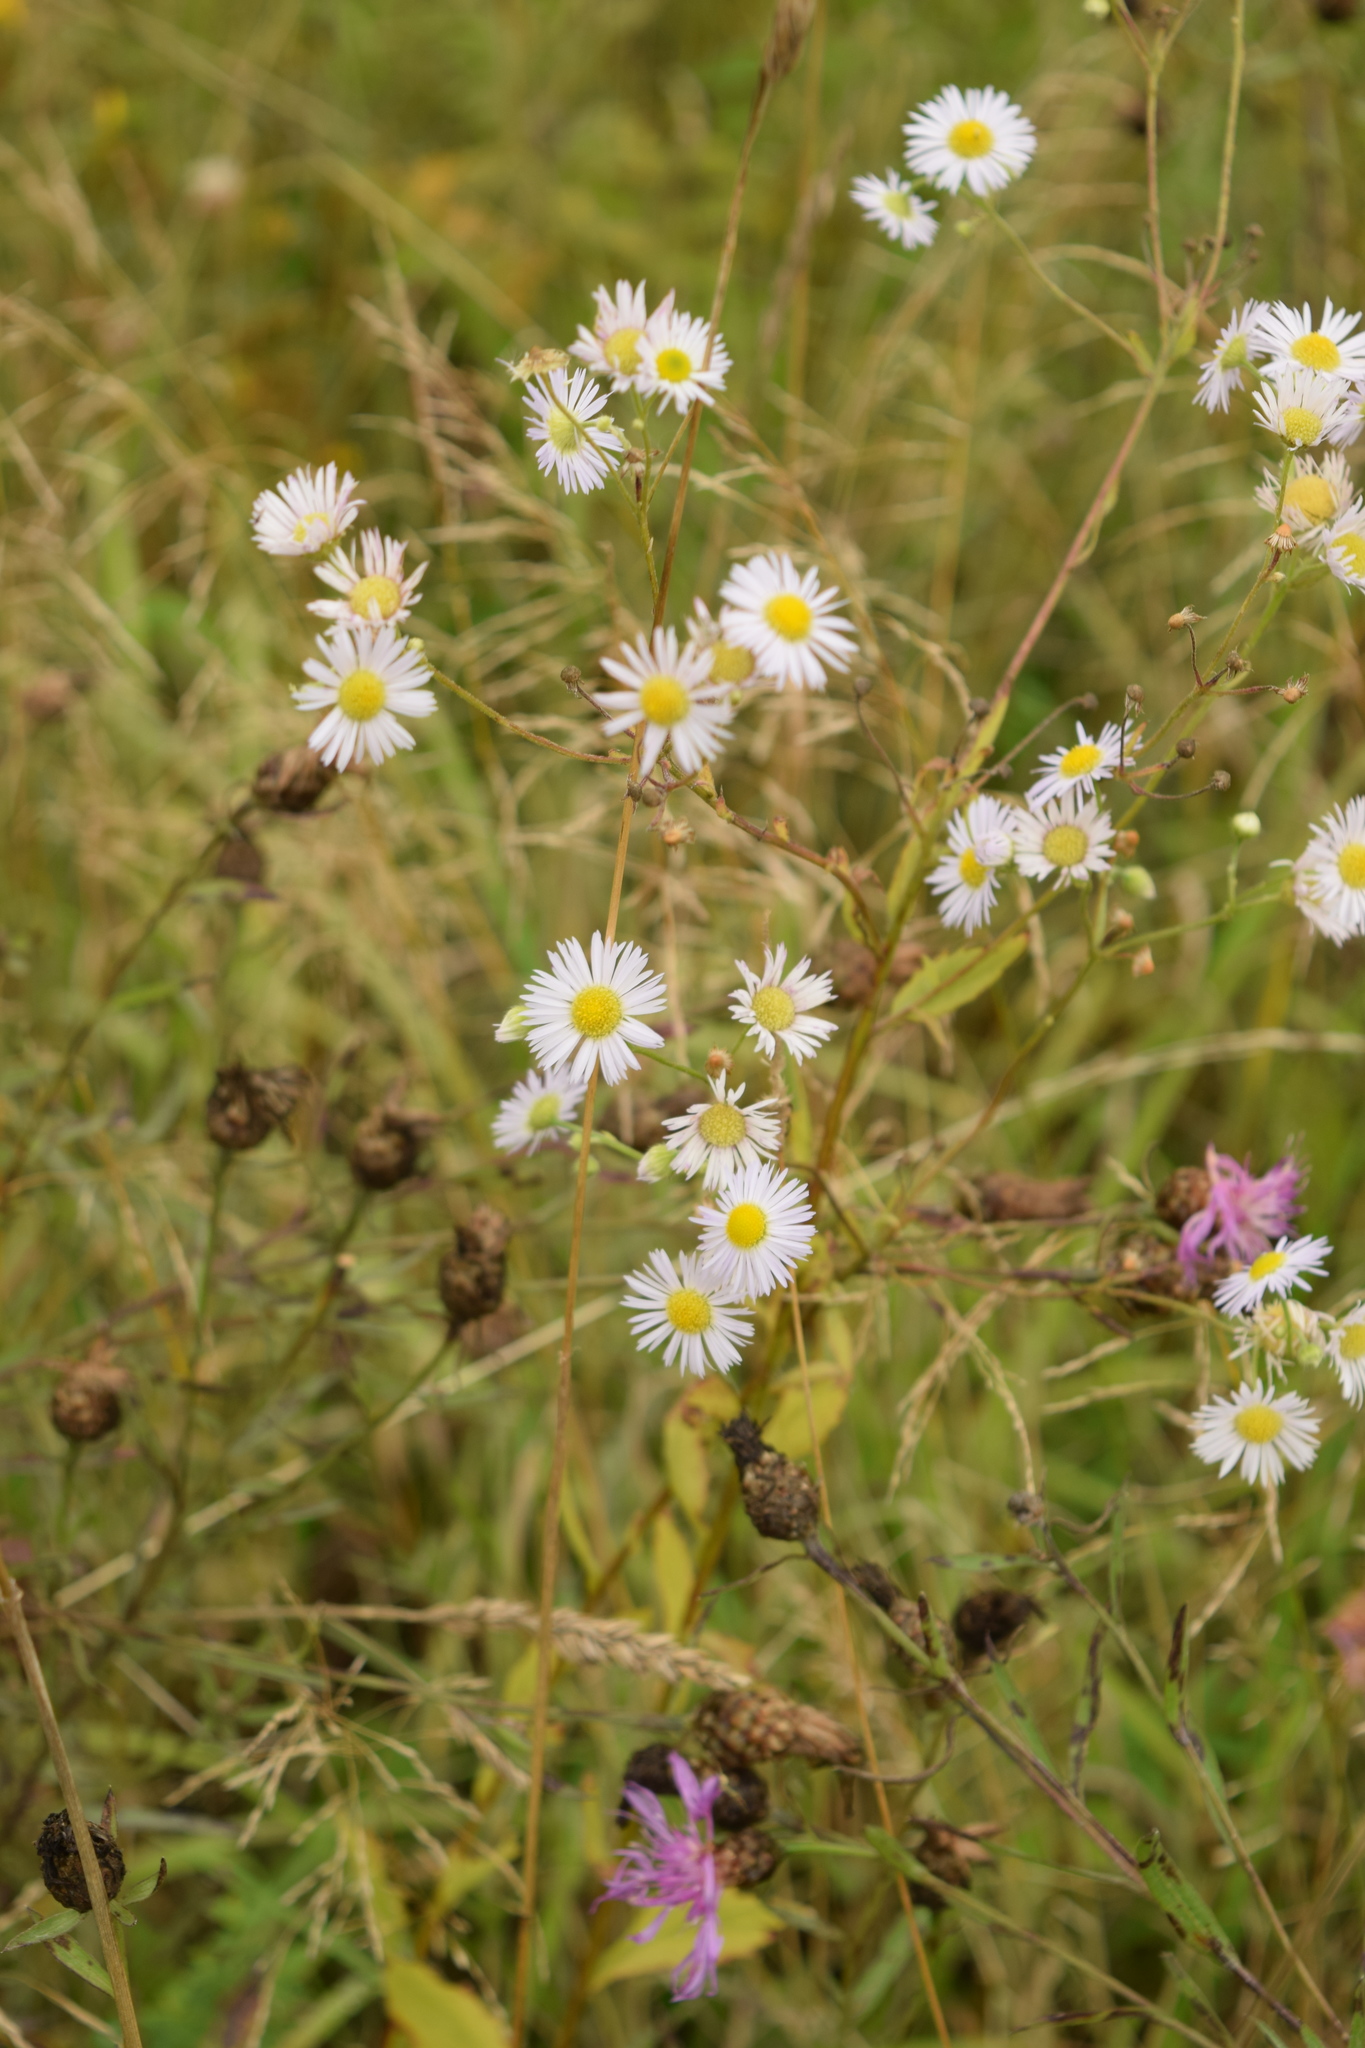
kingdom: Plantae
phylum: Tracheophyta
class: Magnoliopsida
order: Asterales
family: Asteraceae
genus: Erigeron
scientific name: Erigeron annuus
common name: Tall fleabane
